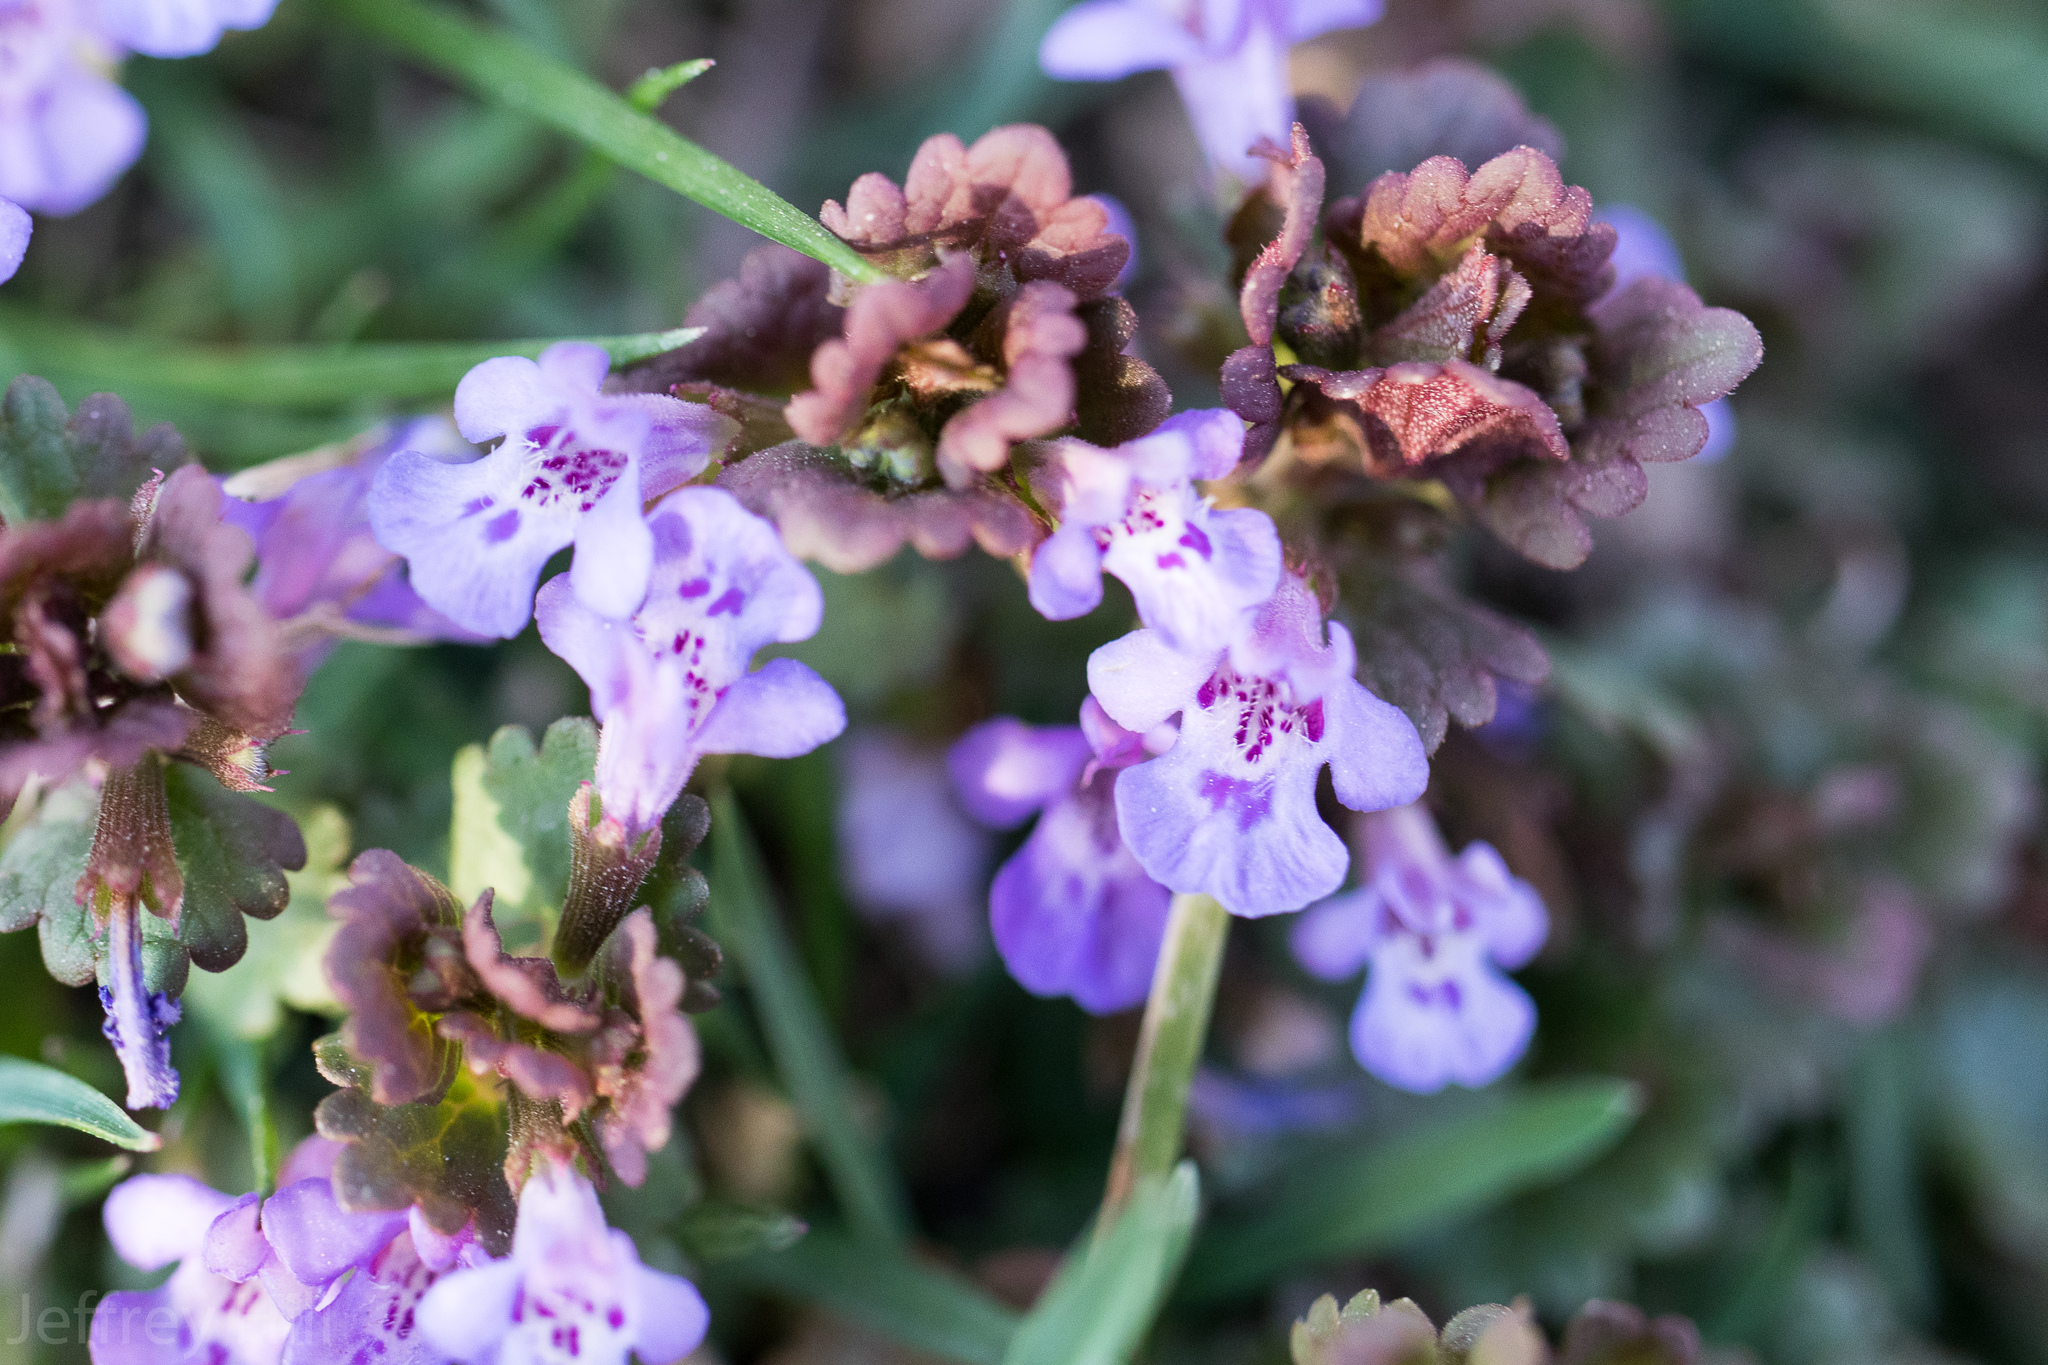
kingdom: Plantae
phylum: Tracheophyta
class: Magnoliopsida
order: Lamiales
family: Lamiaceae
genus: Glechoma
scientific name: Glechoma hederacea
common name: Ground ivy
